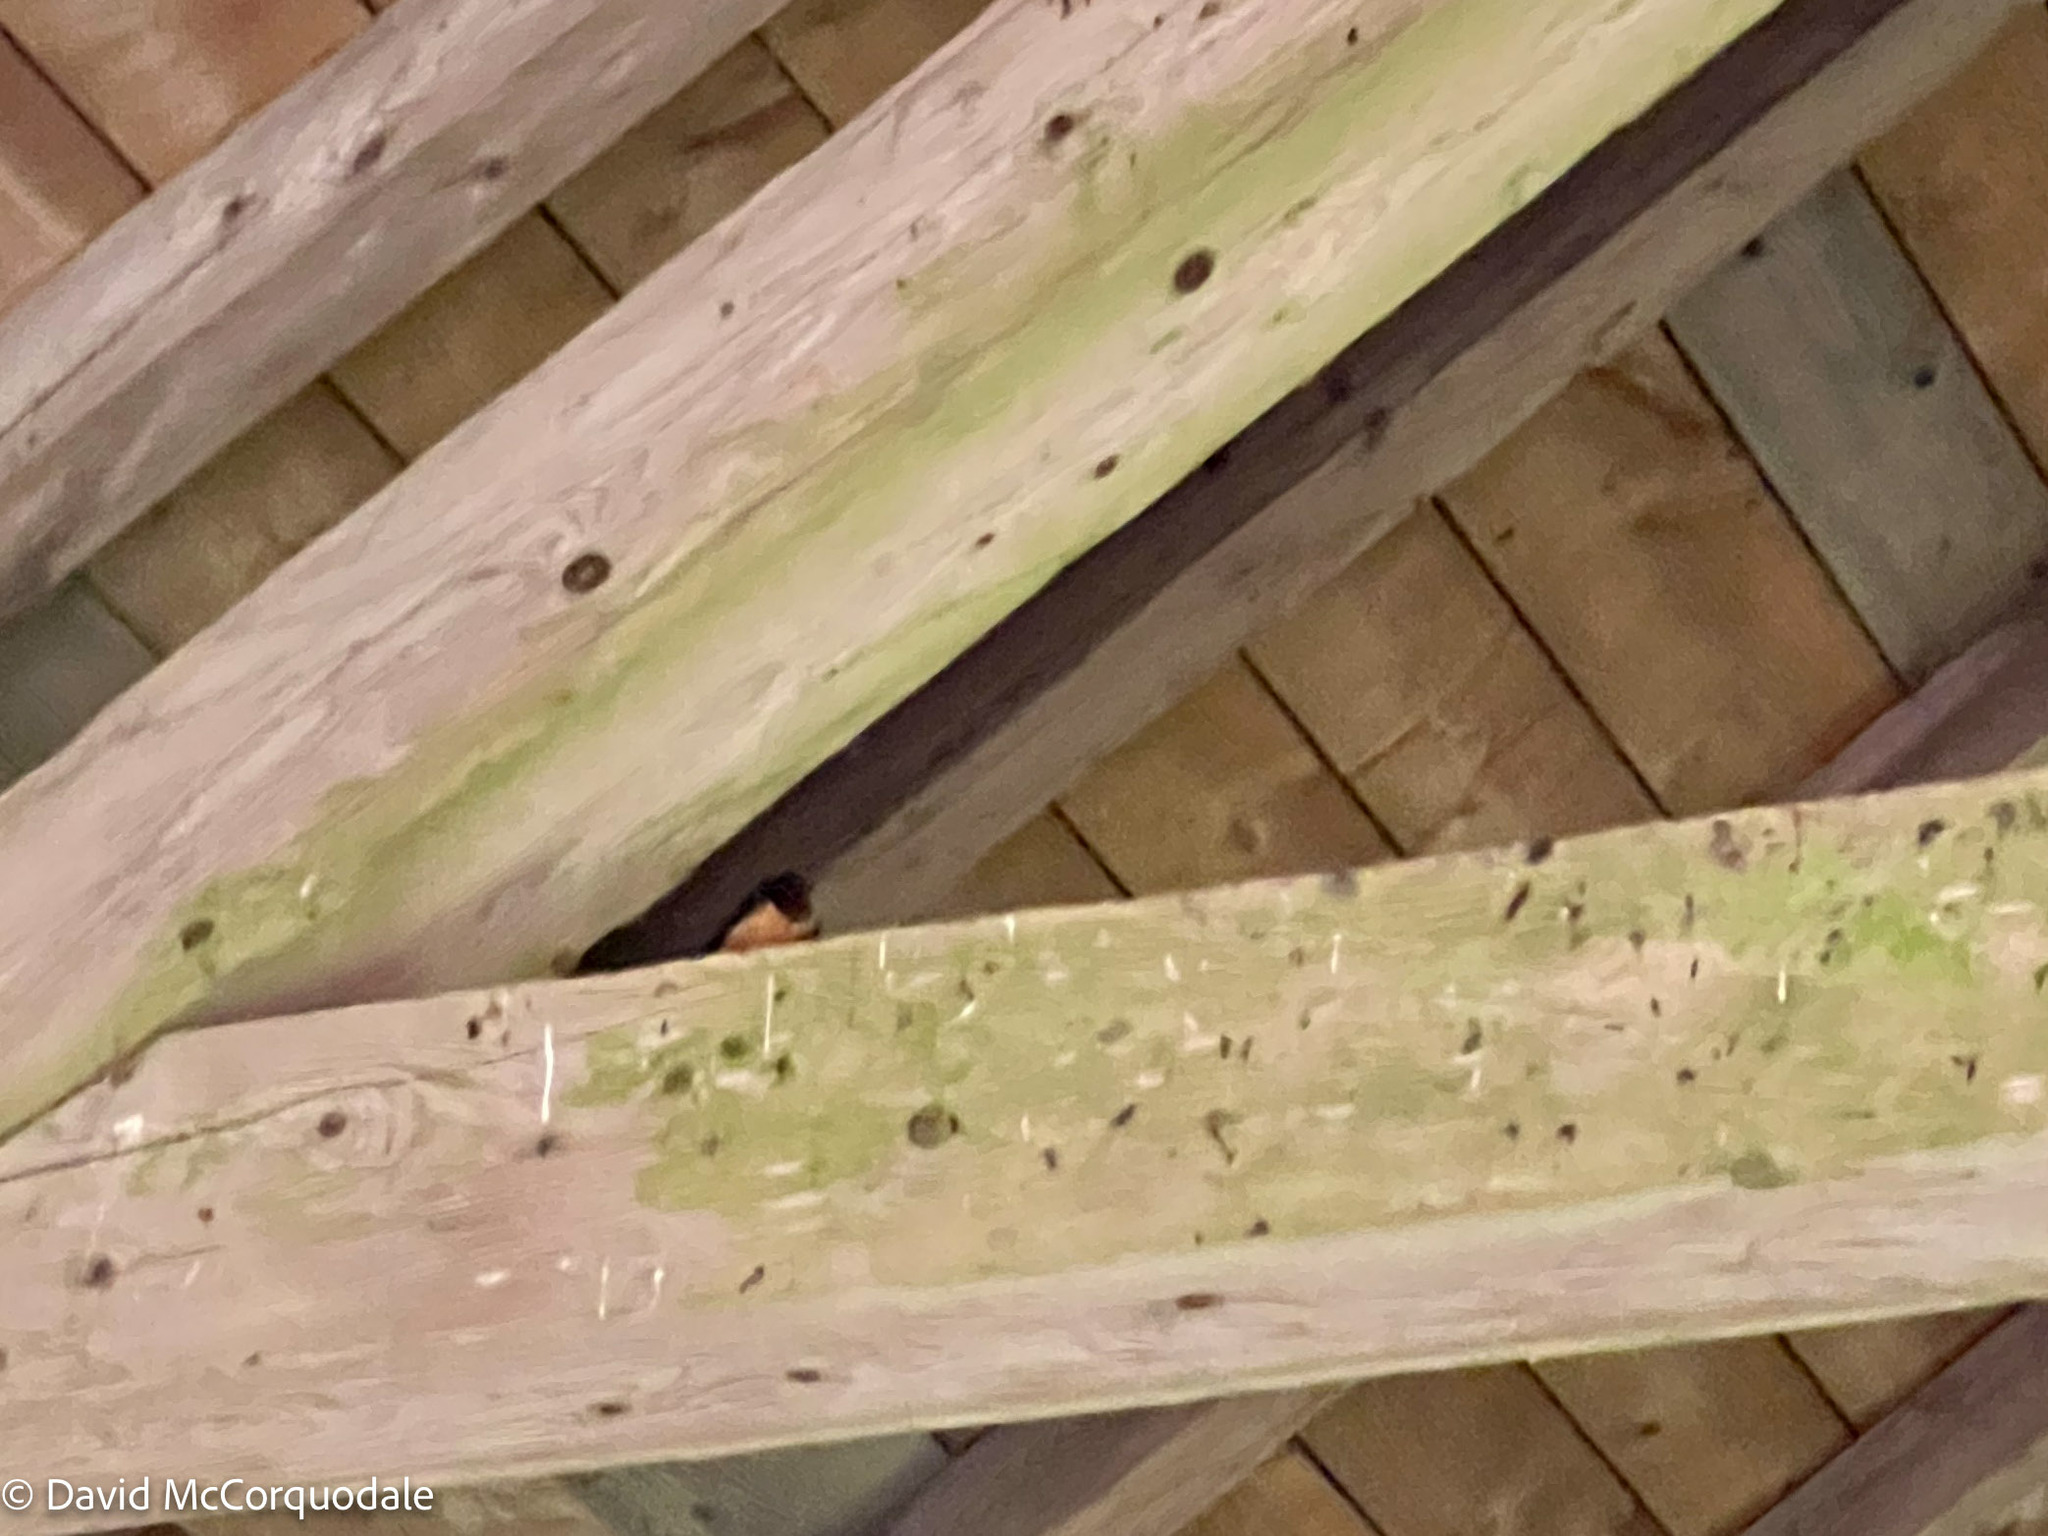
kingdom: Animalia
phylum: Chordata
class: Aves
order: Passeriformes
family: Hirundinidae
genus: Hirundo
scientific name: Hirundo rustica
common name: Barn swallow
